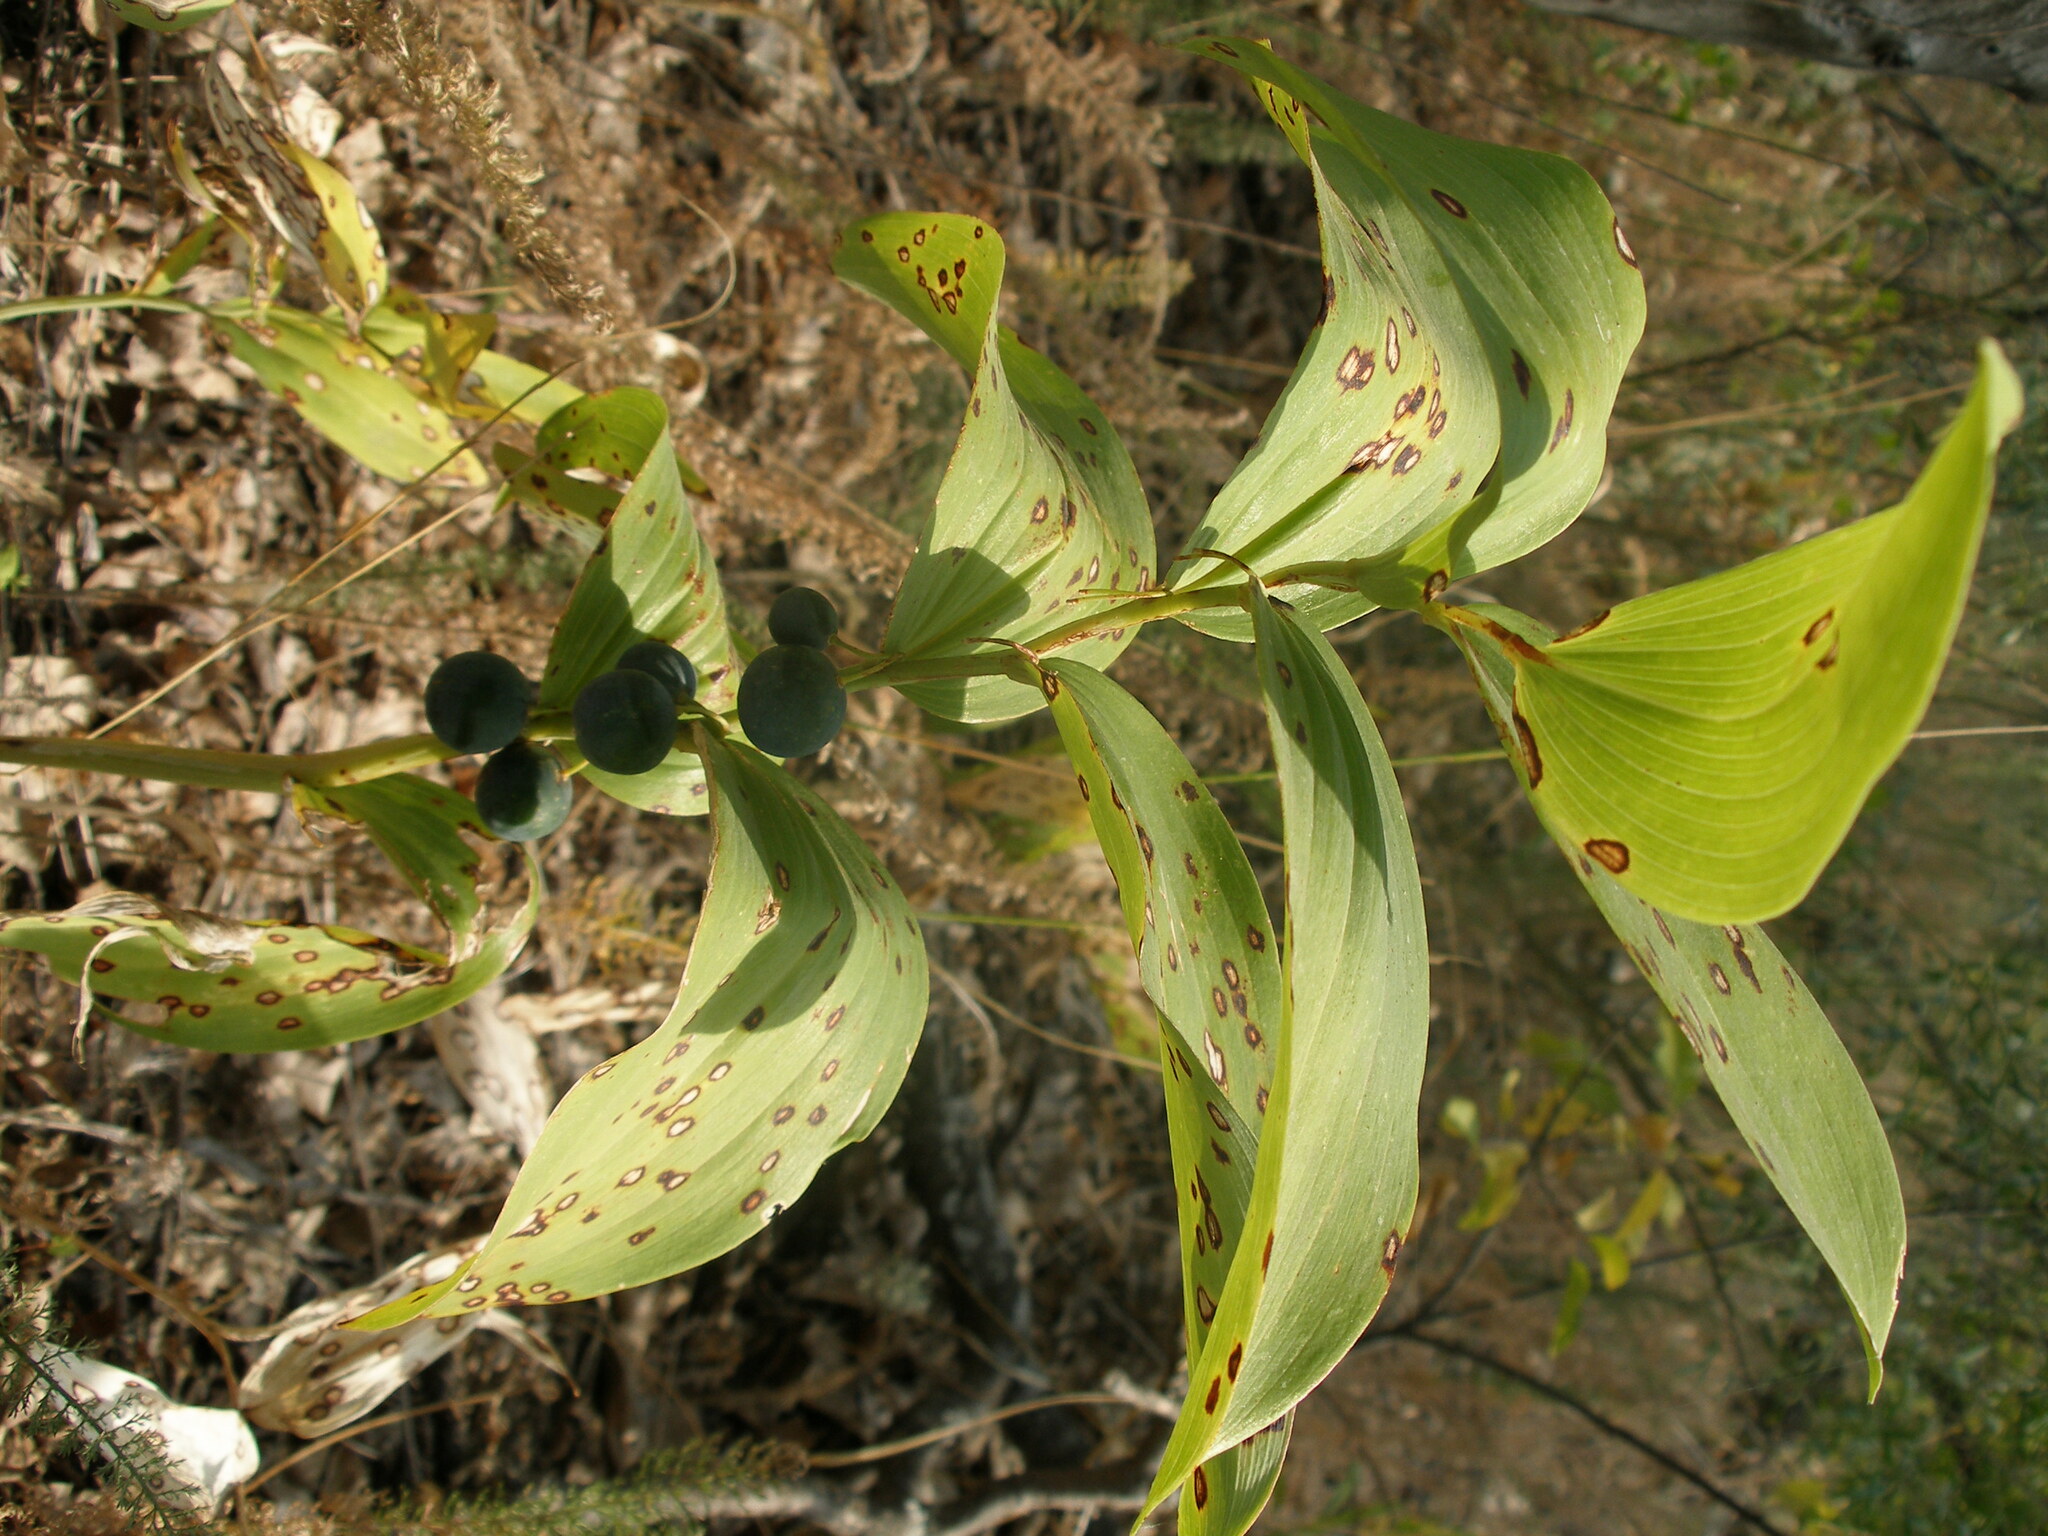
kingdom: Plantae
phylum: Tracheophyta
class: Liliopsida
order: Asparagales
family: Asparagaceae
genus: Polygonatum
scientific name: Polygonatum multiflorum
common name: Solomon's-seal
